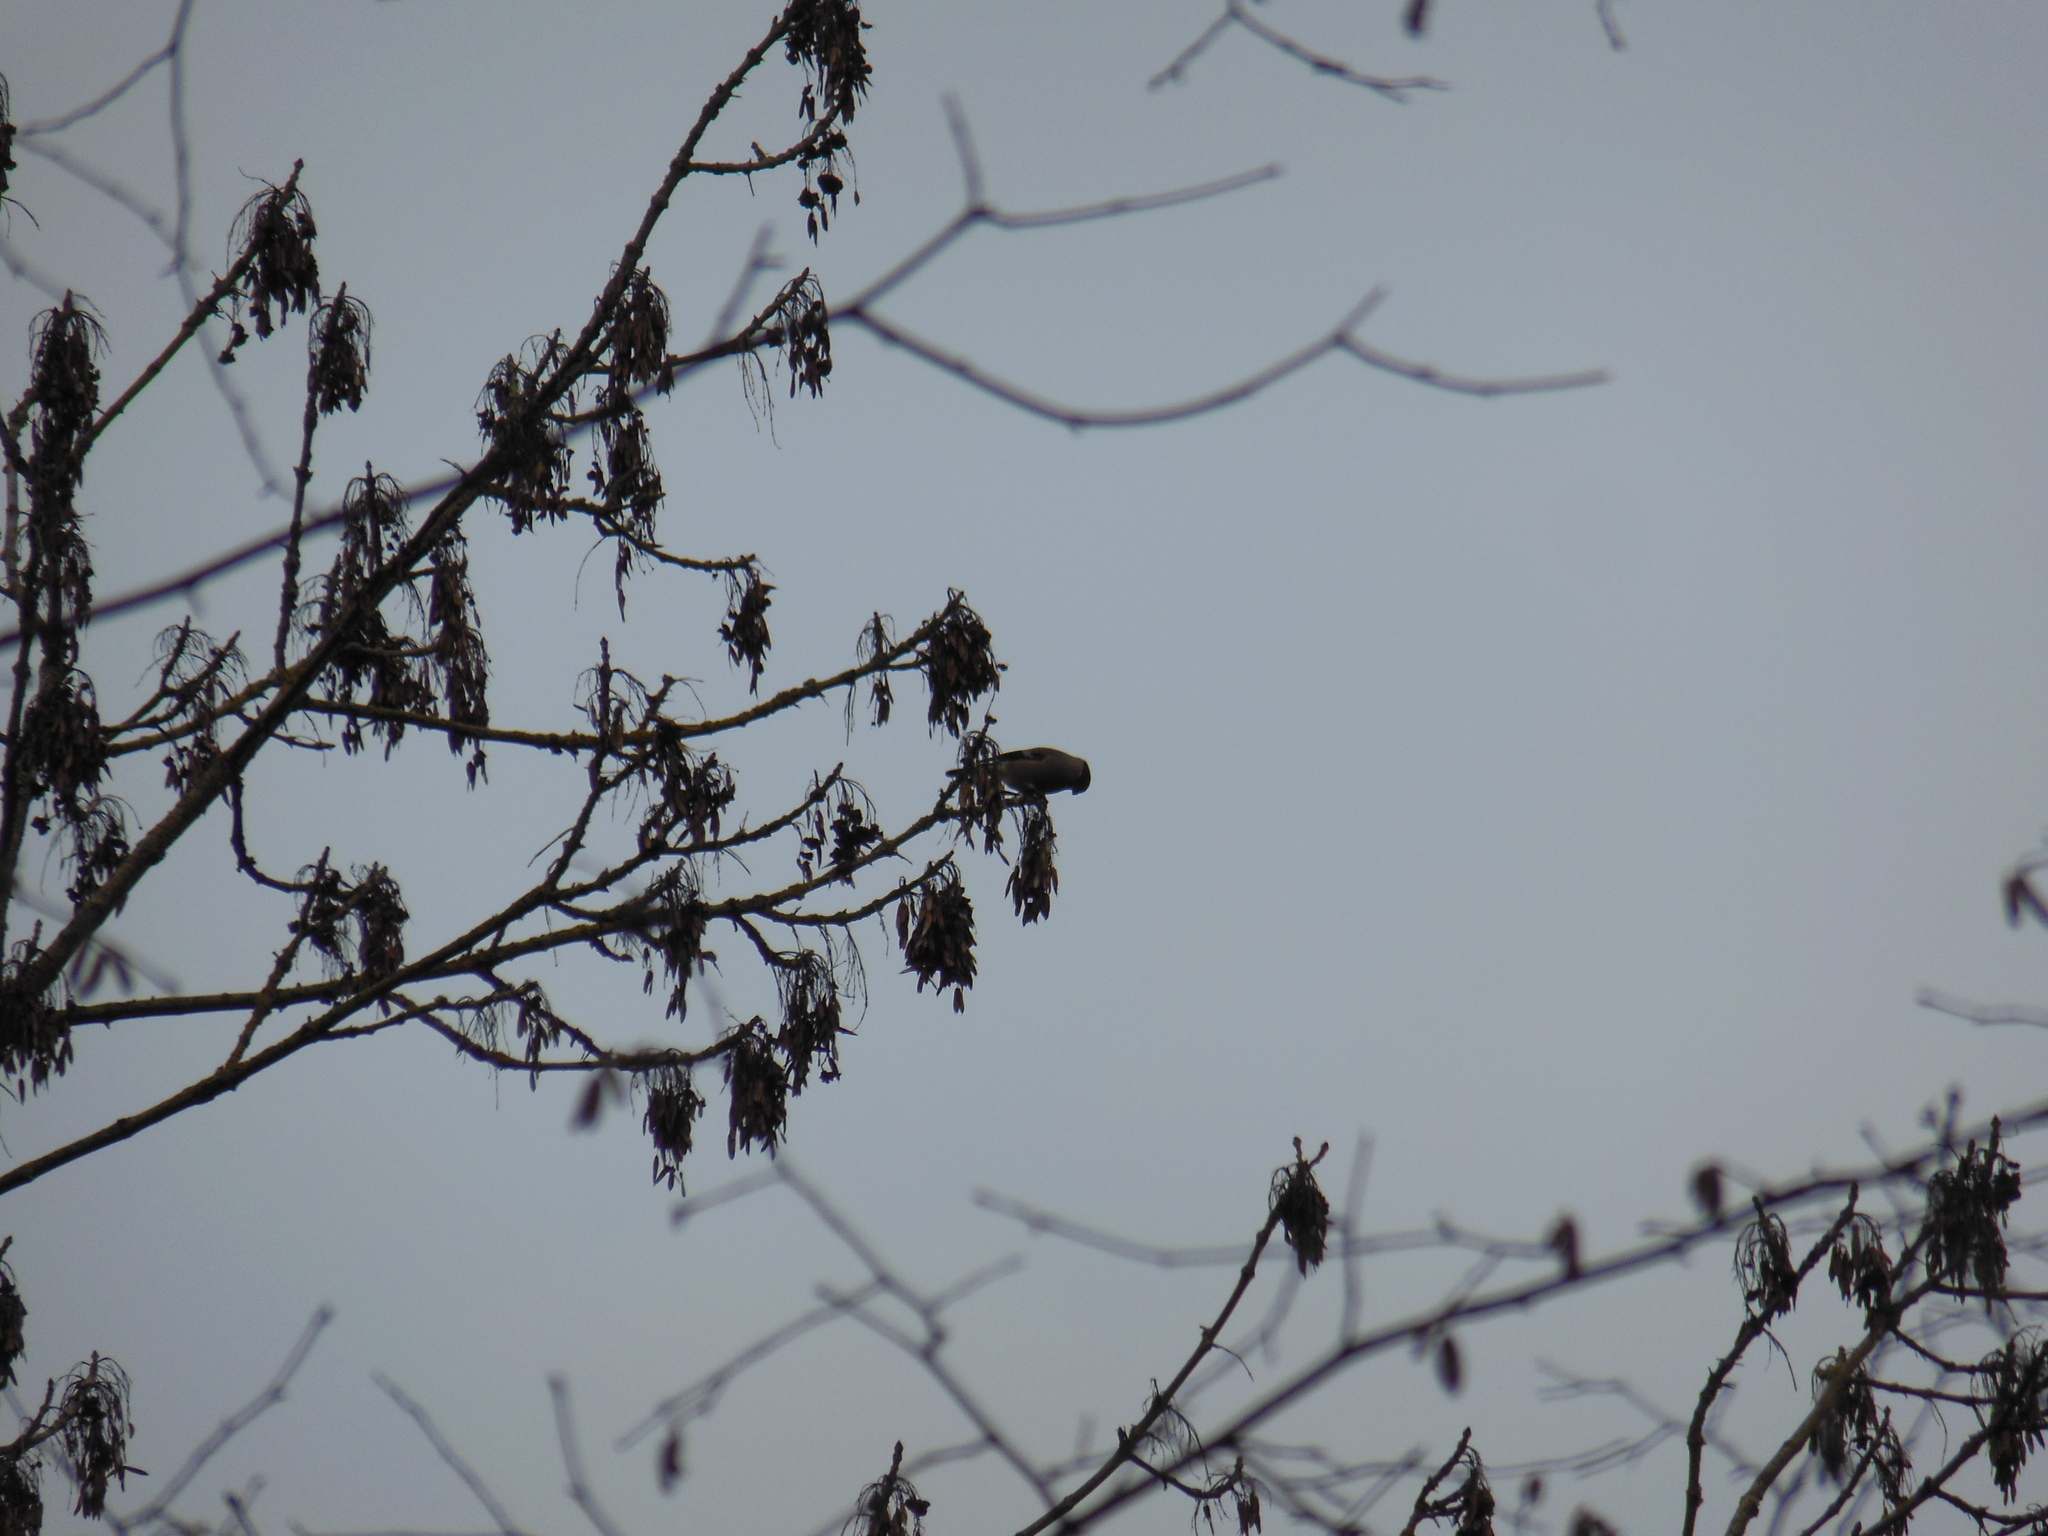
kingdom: Animalia
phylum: Chordata
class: Aves
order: Passeriformes
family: Fringillidae
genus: Pyrrhula
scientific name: Pyrrhula pyrrhula
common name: Eurasian bullfinch
